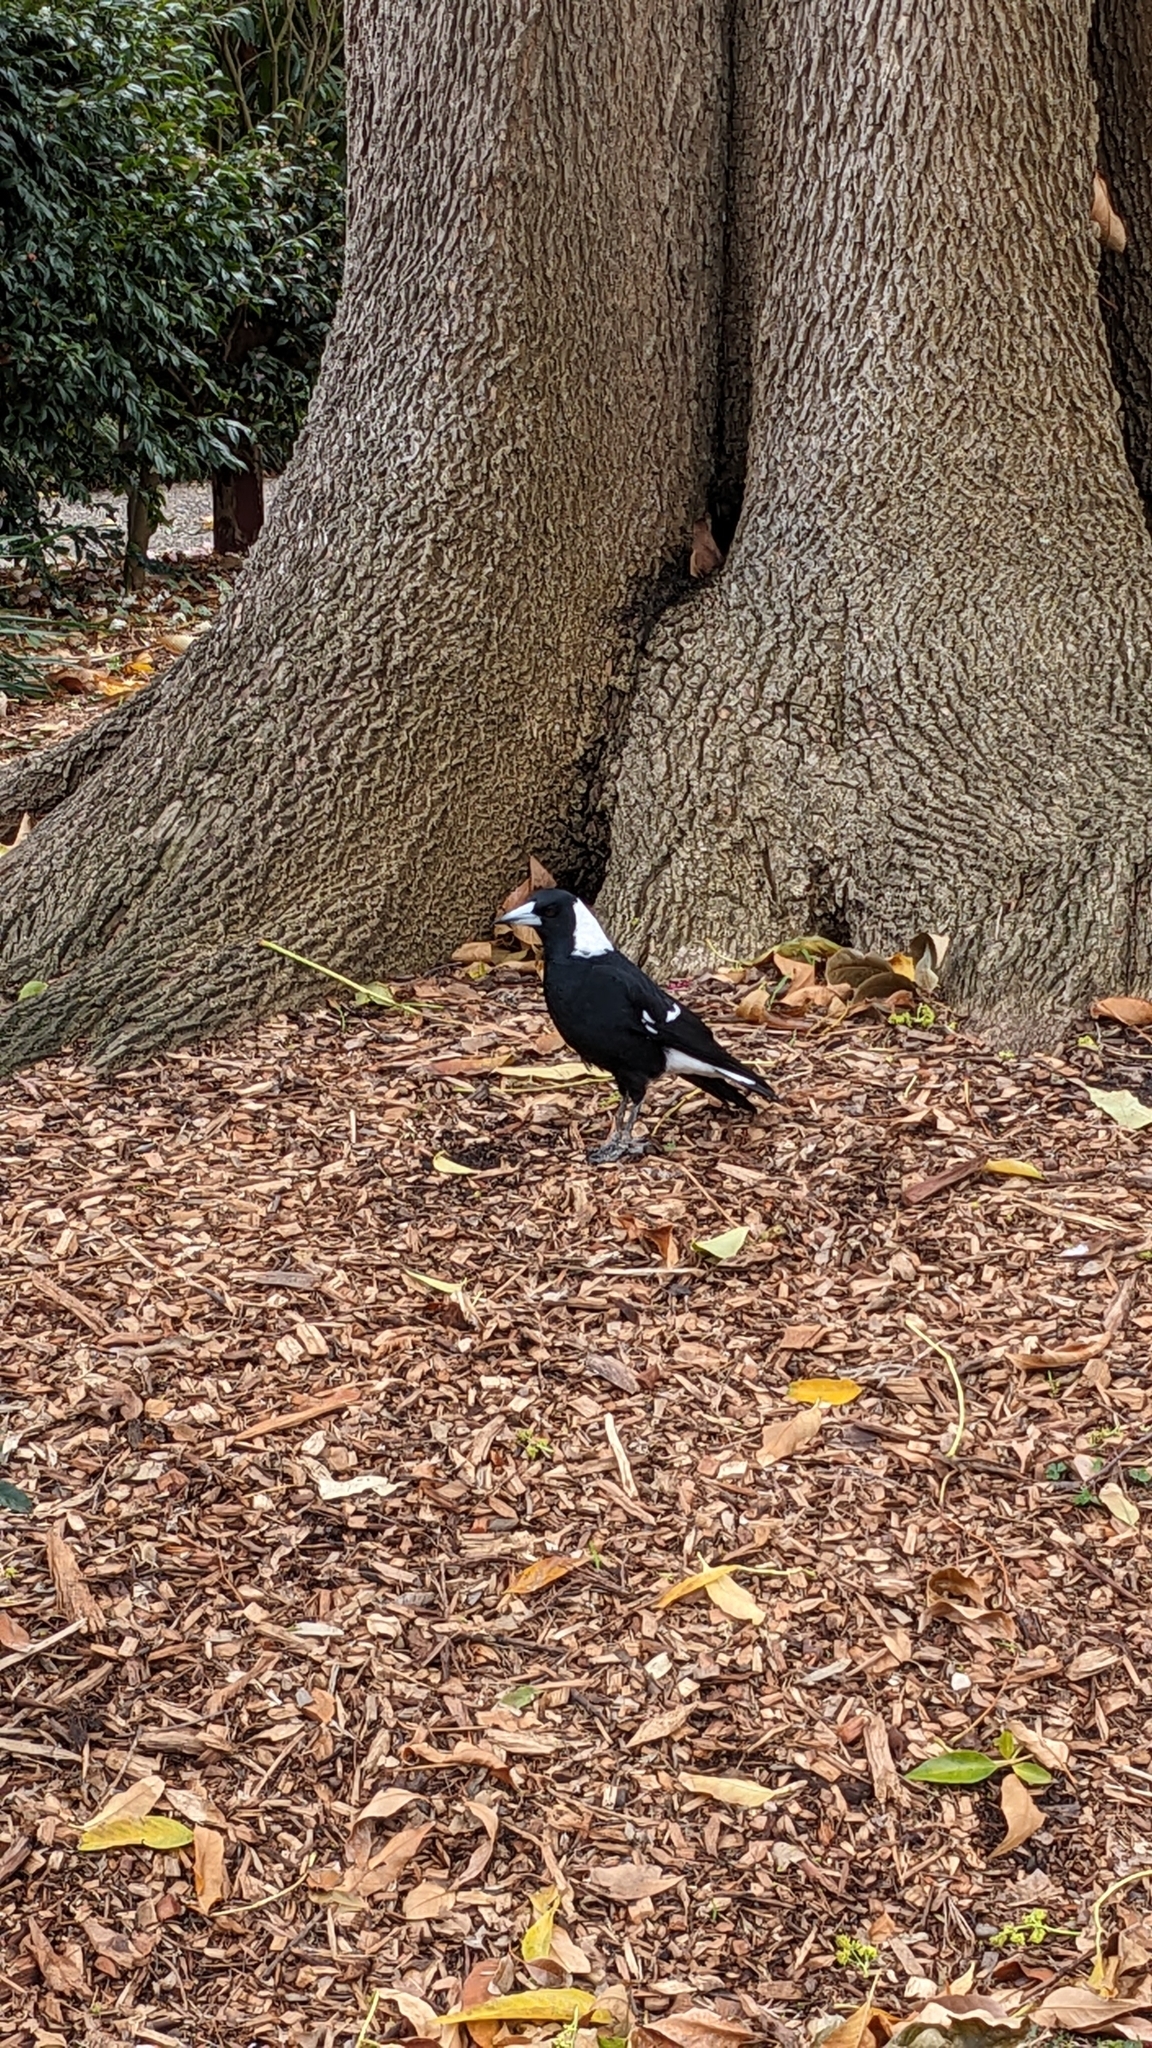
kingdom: Animalia
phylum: Chordata
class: Aves
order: Passeriformes
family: Cracticidae
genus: Gymnorhina
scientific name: Gymnorhina tibicen
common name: Australian magpie
